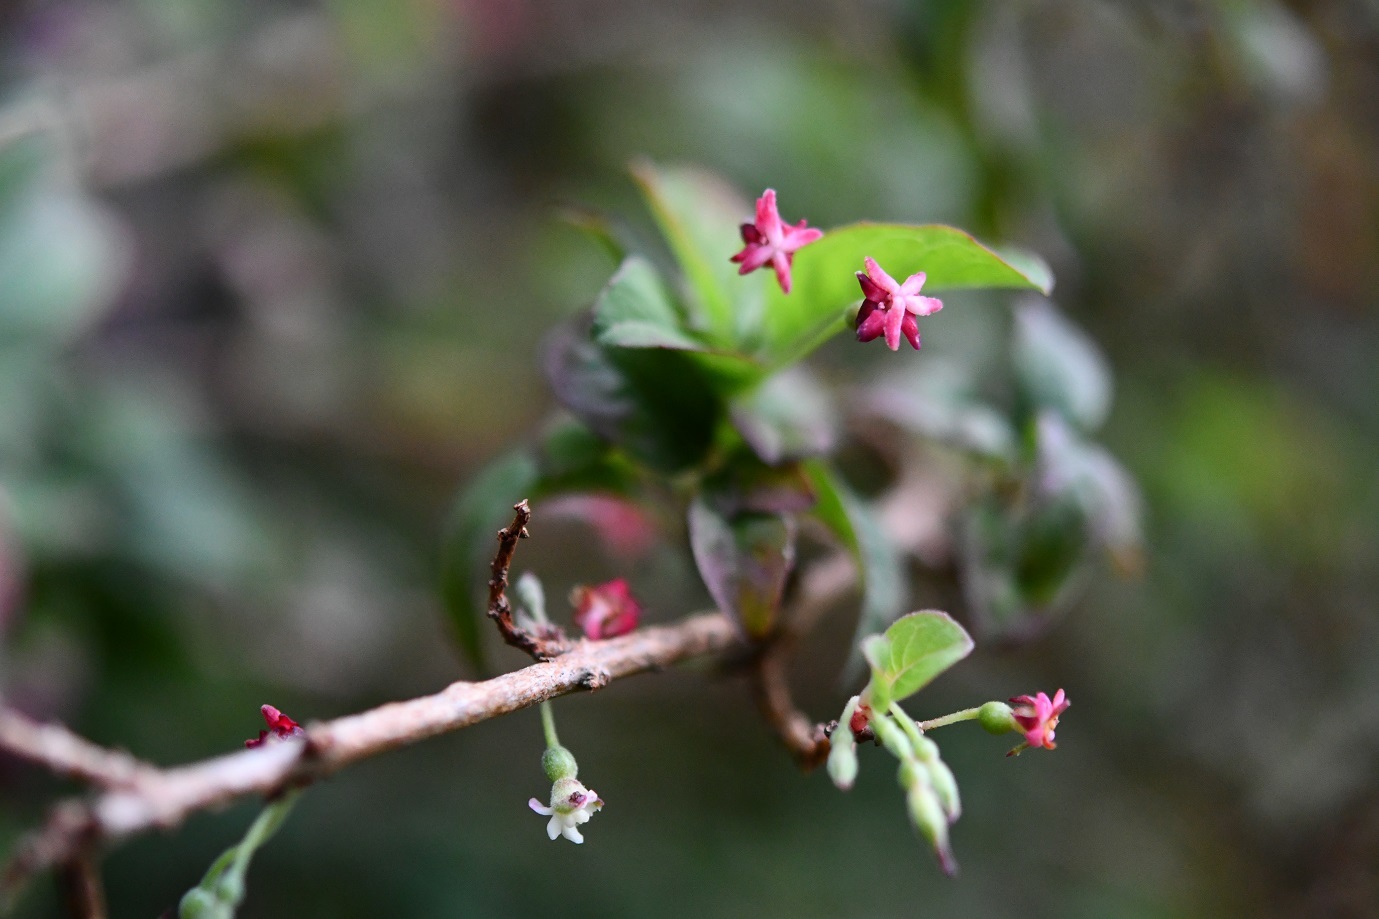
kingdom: Plantae
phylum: Tracheophyta
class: Magnoliopsida
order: Myrtales
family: Onagraceae
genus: Fuchsia
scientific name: Fuchsia encliandra
